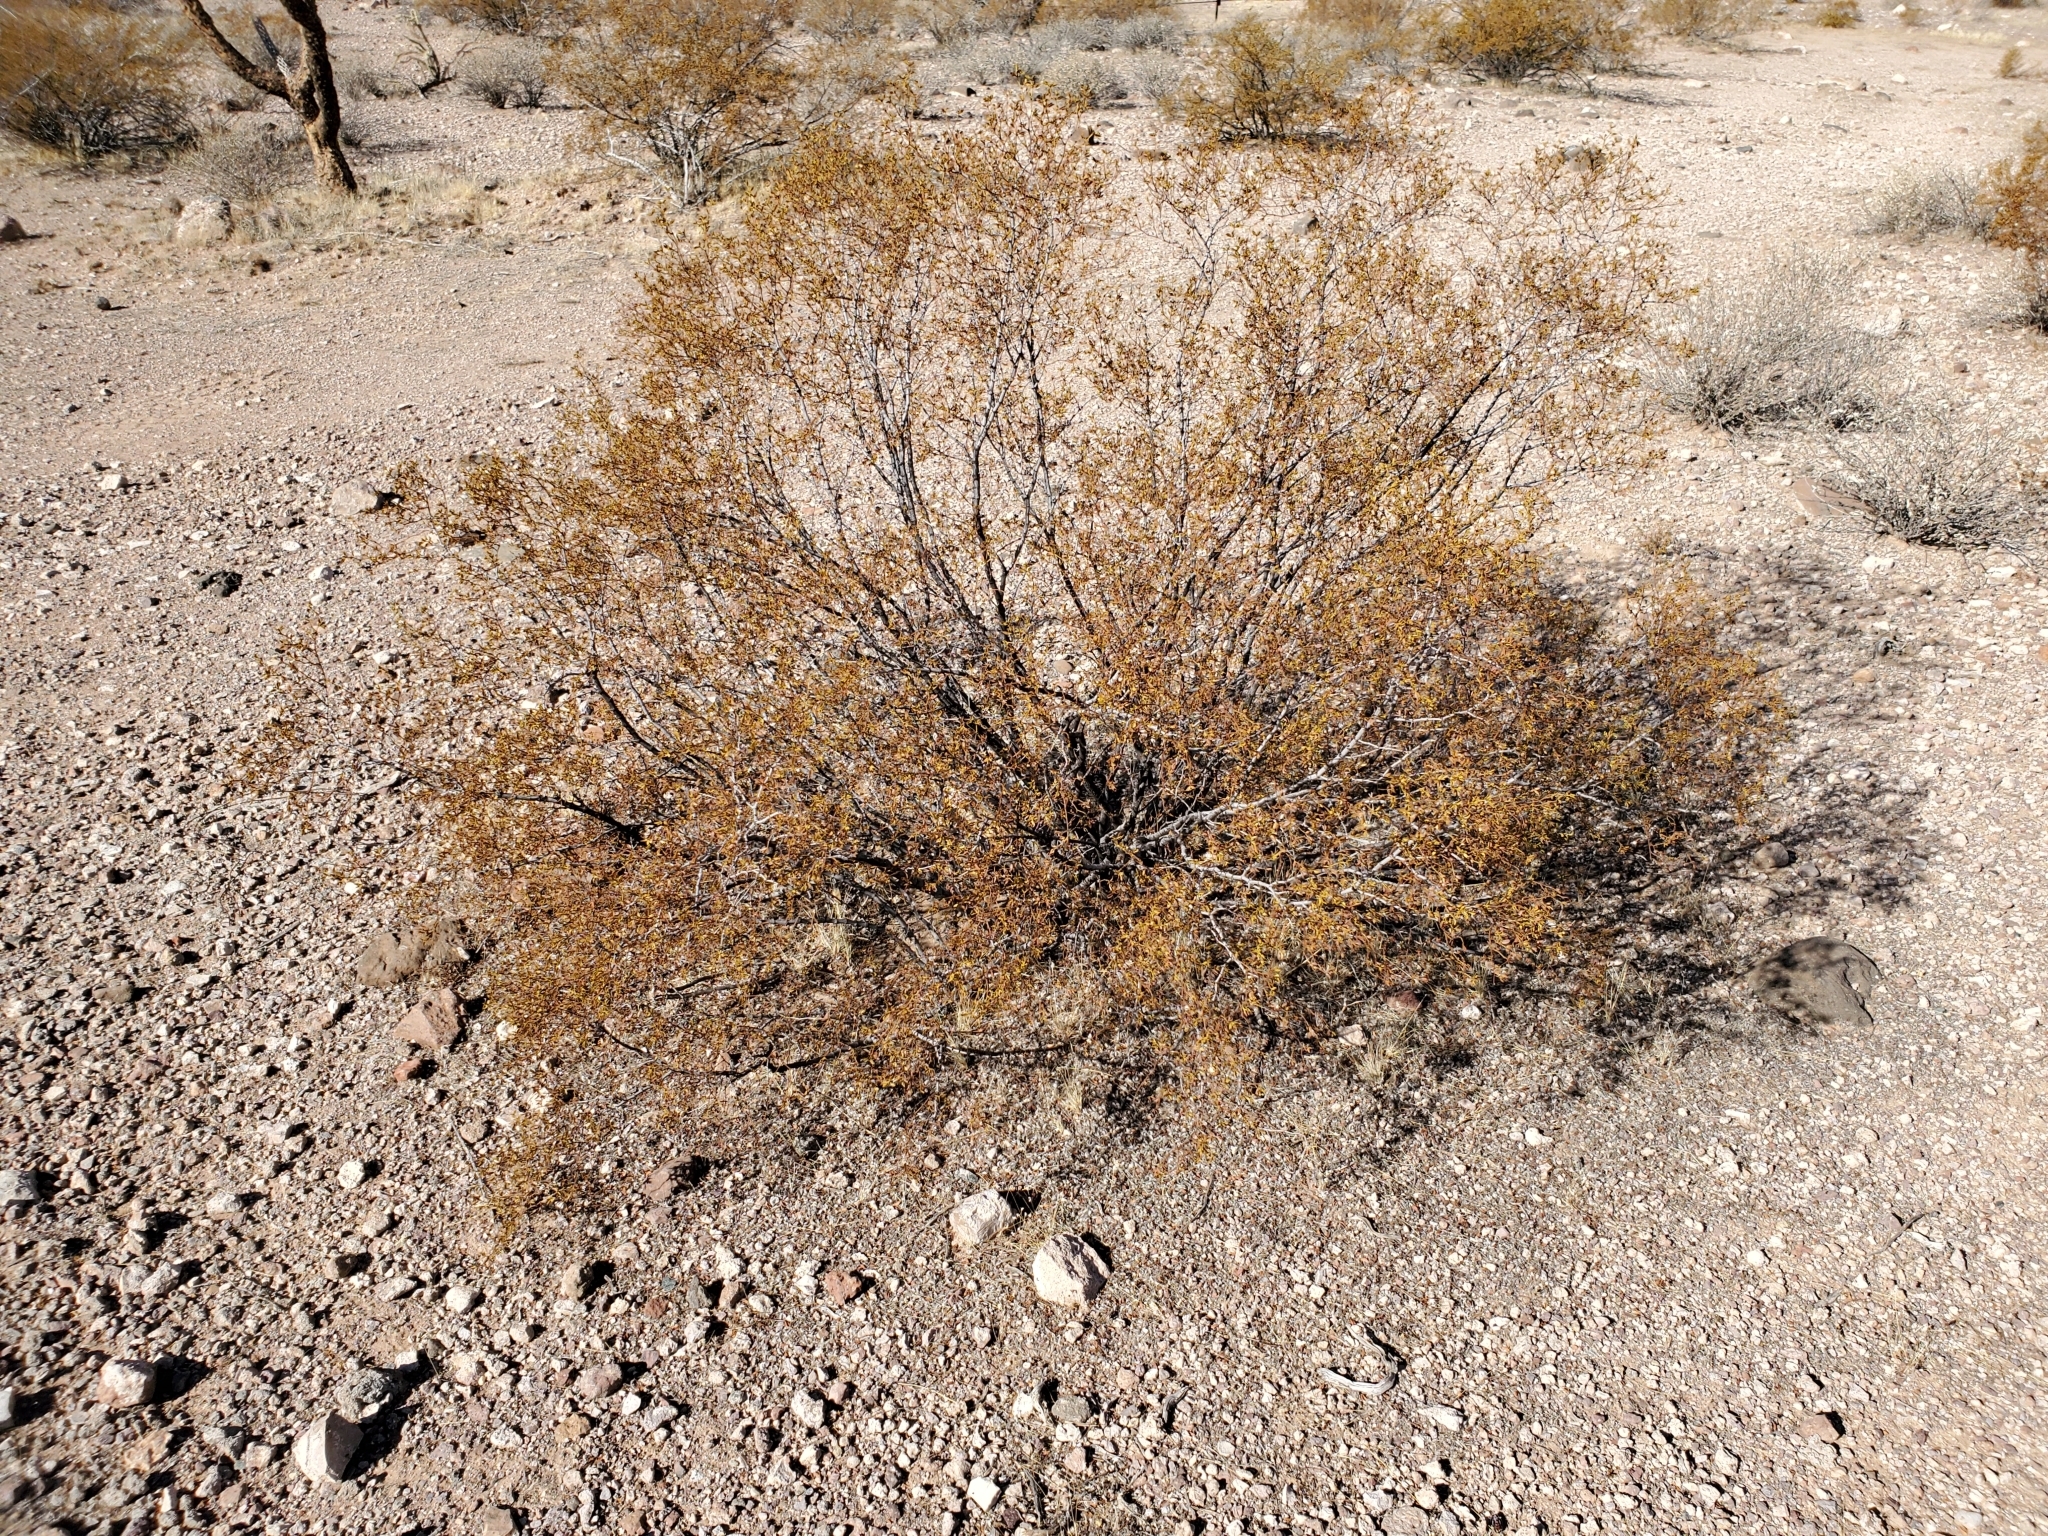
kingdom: Plantae
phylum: Tracheophyta
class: Magnoliopsida
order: Zygophyllales
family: Zygophyllaceae
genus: Larrea
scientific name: Larrea tridentata
